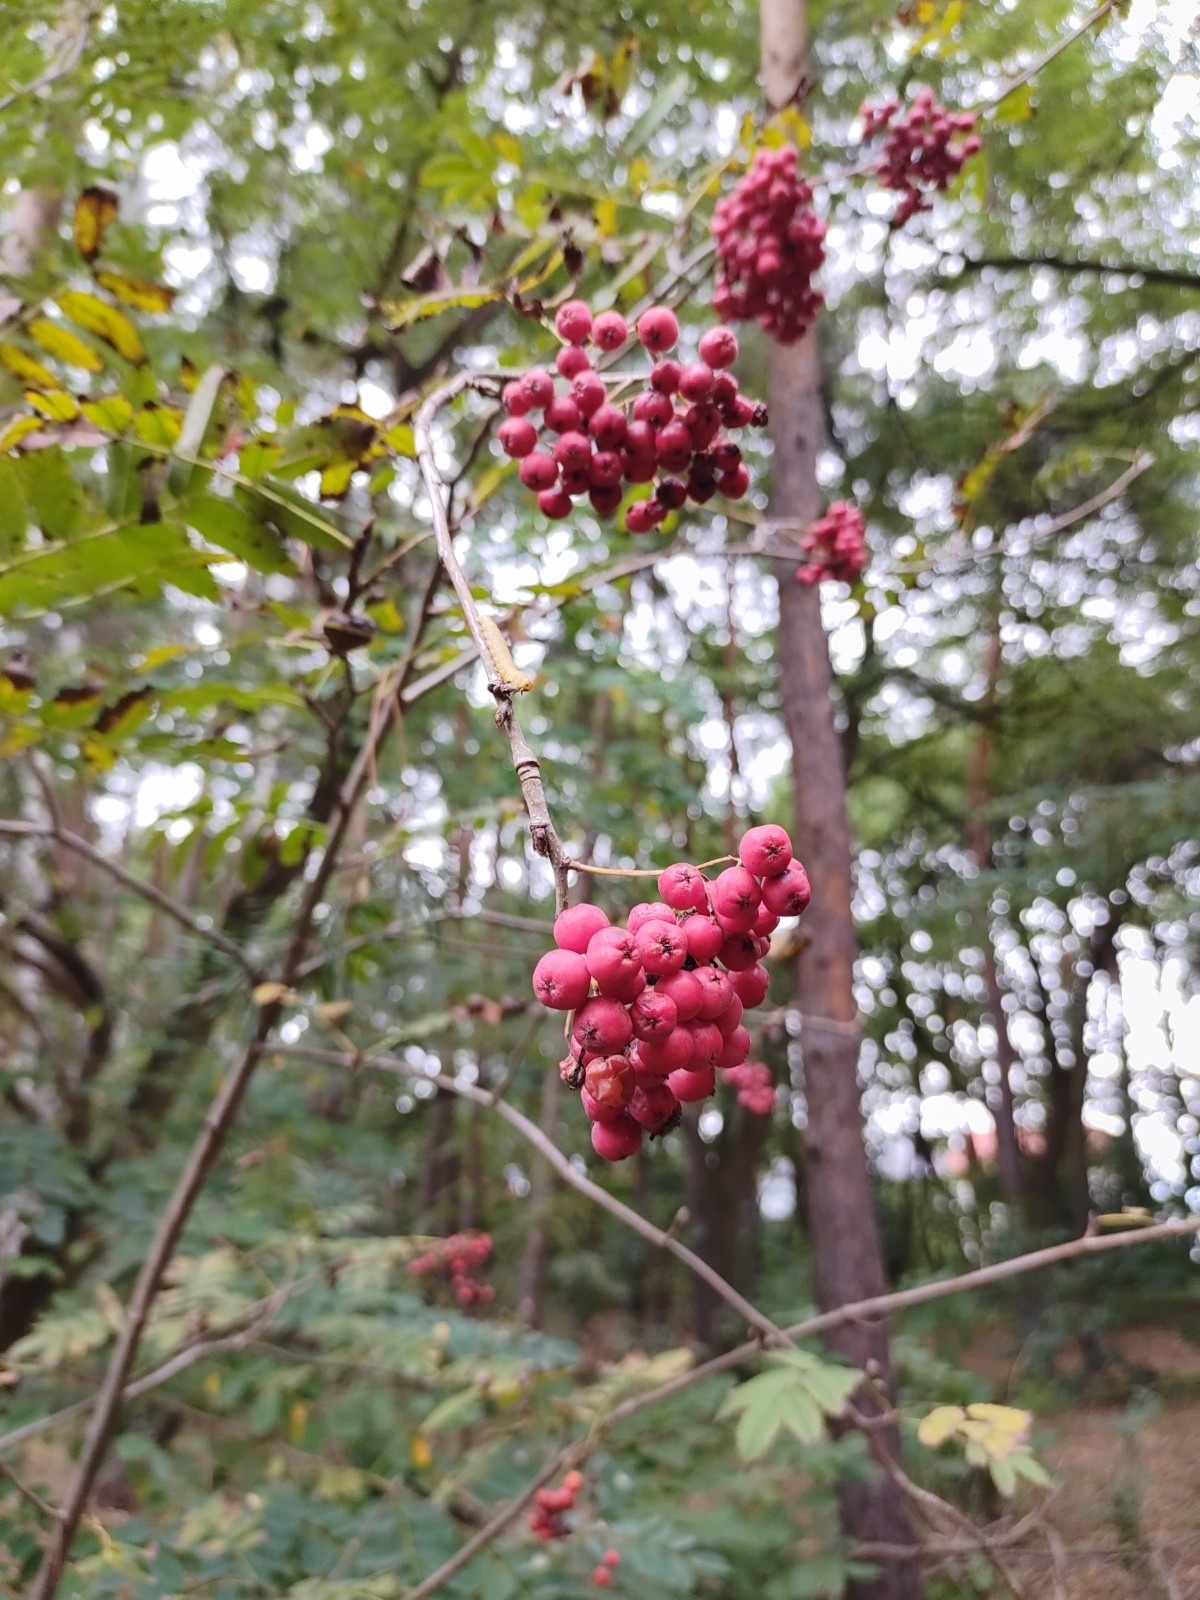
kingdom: Plantae
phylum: Tracheophyta
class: Magnoliopsida
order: Rosales
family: Rosaceae
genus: Sorbus
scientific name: Sorbus aucuparia
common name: Rowan
